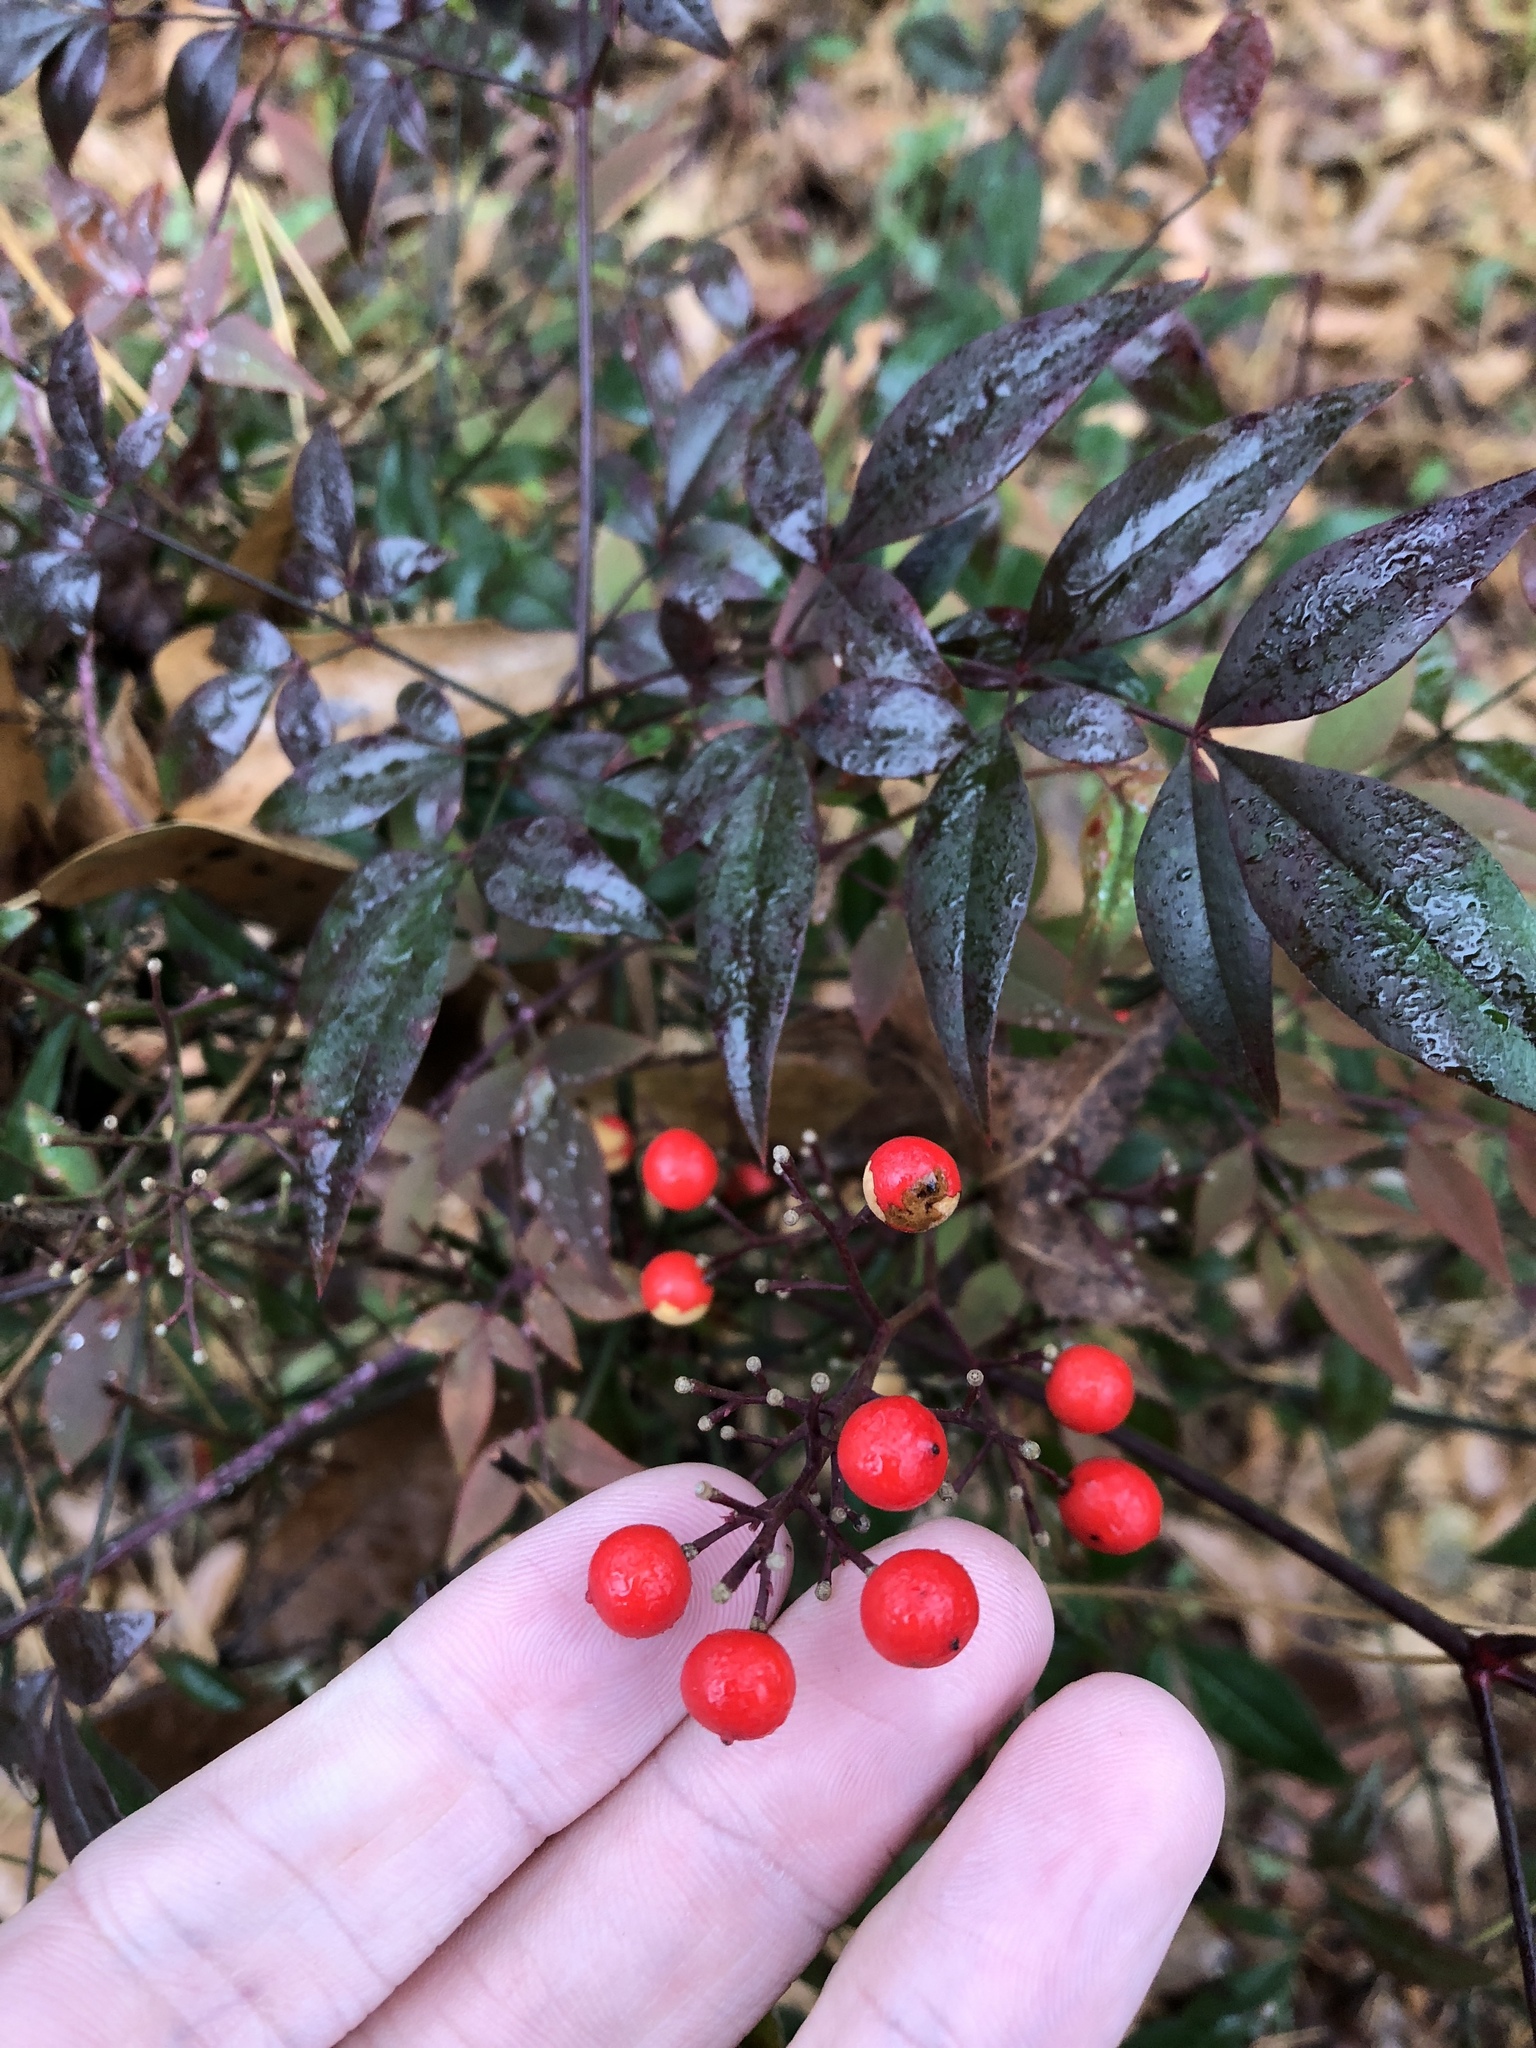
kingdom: Plantae
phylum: Tracheophyta
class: Magnoliopsida
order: Ranunculales
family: Berberidaceae
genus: Nandina
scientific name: Nandina domestica
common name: Sacred bamboo
